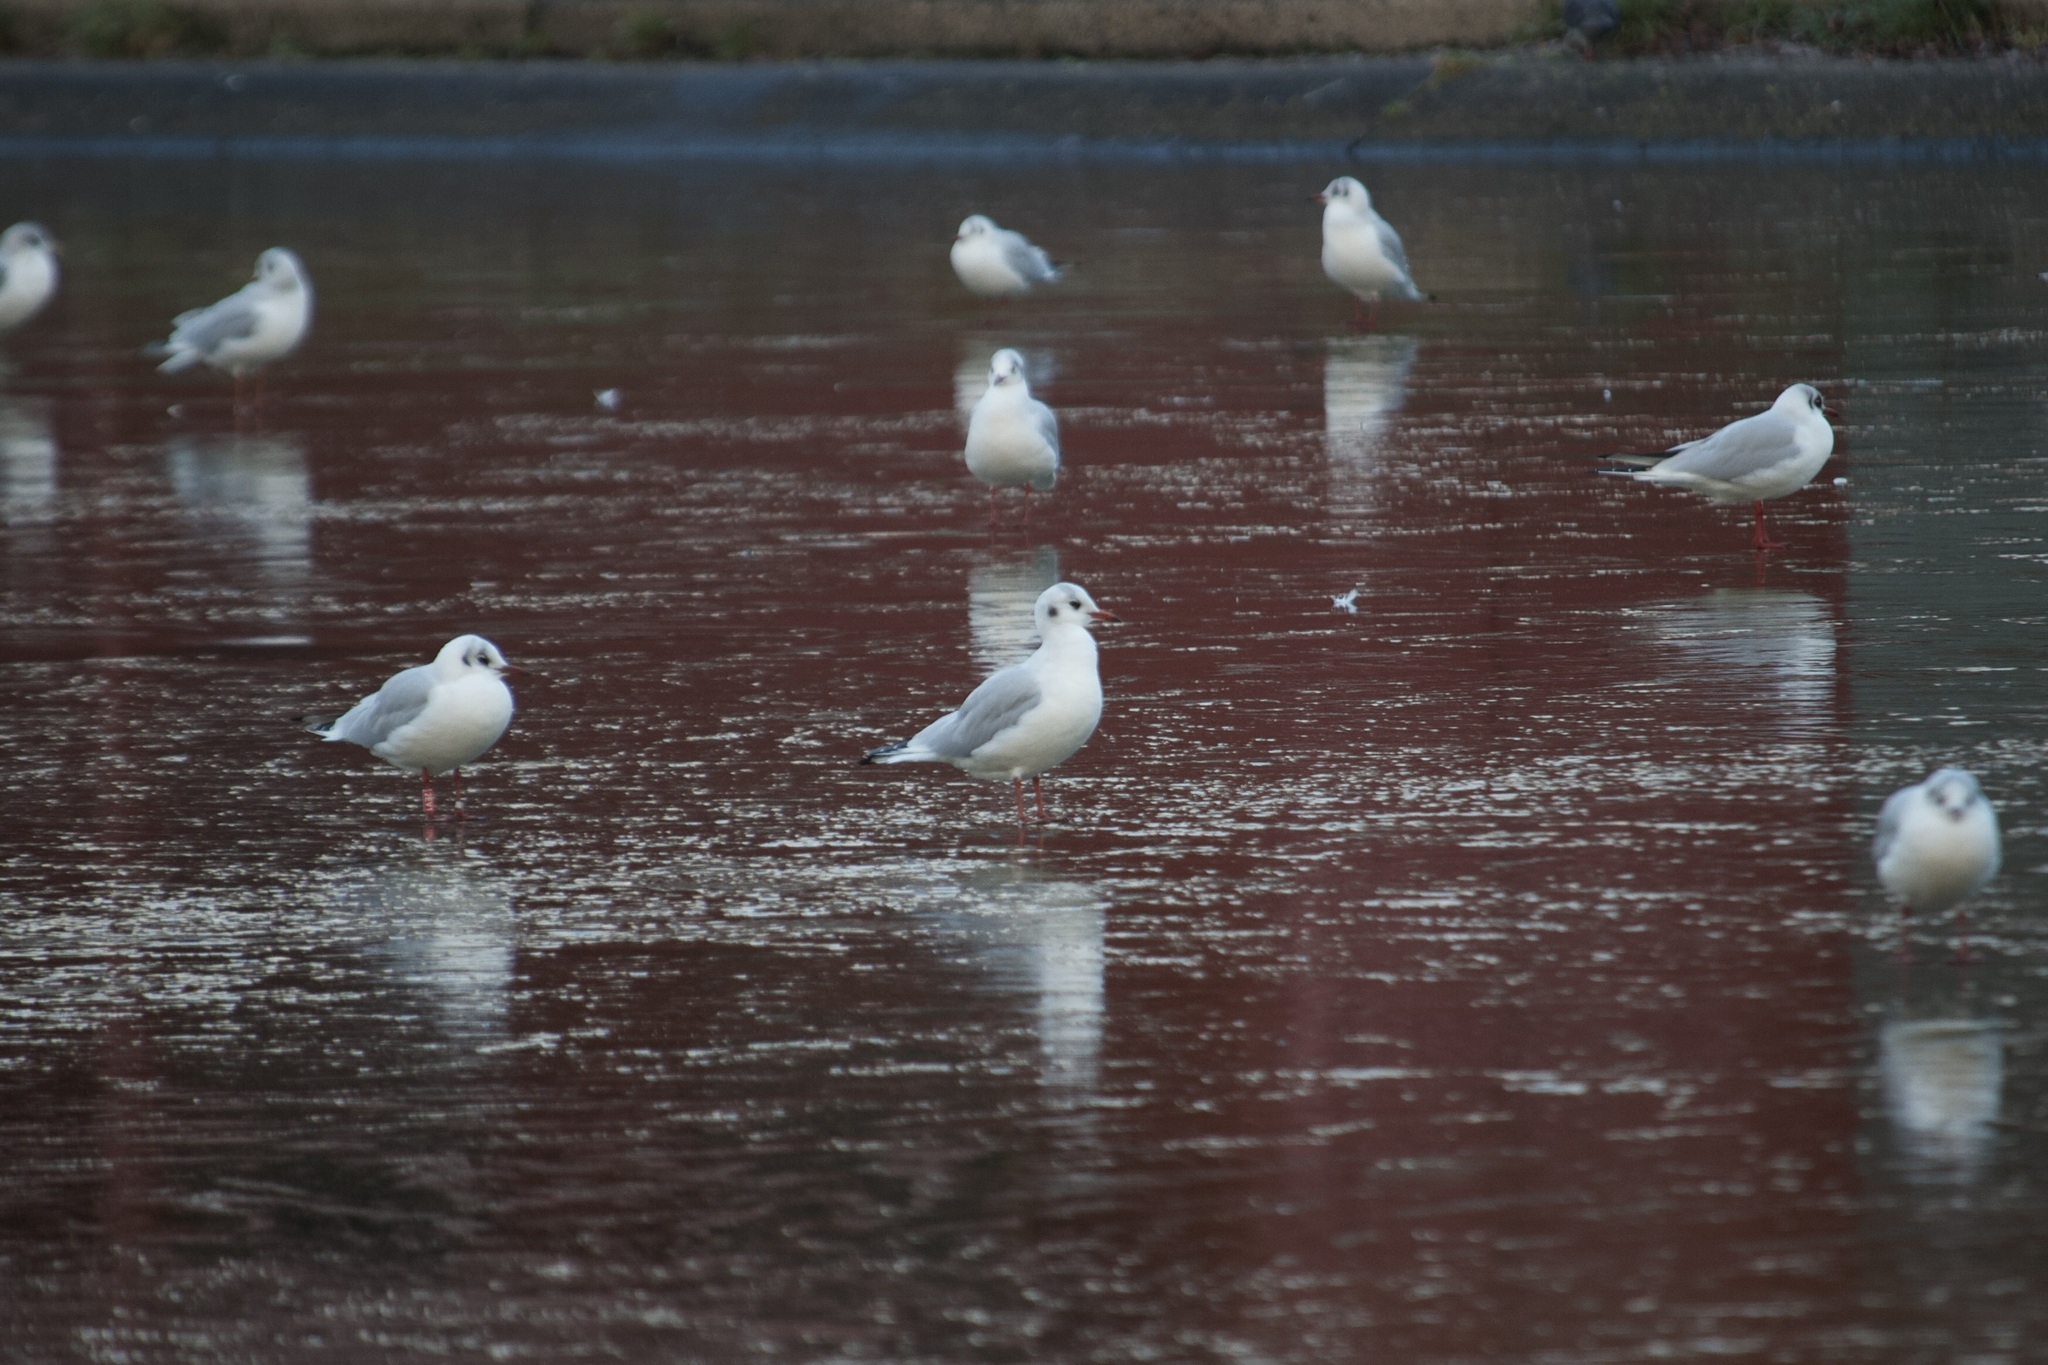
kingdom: Animalia
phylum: Chordata
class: Aves
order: Charadriiformes
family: Laridae
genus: Chroicocephalus
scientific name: Chroicocephalus ridibundus
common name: Black-headed gull
